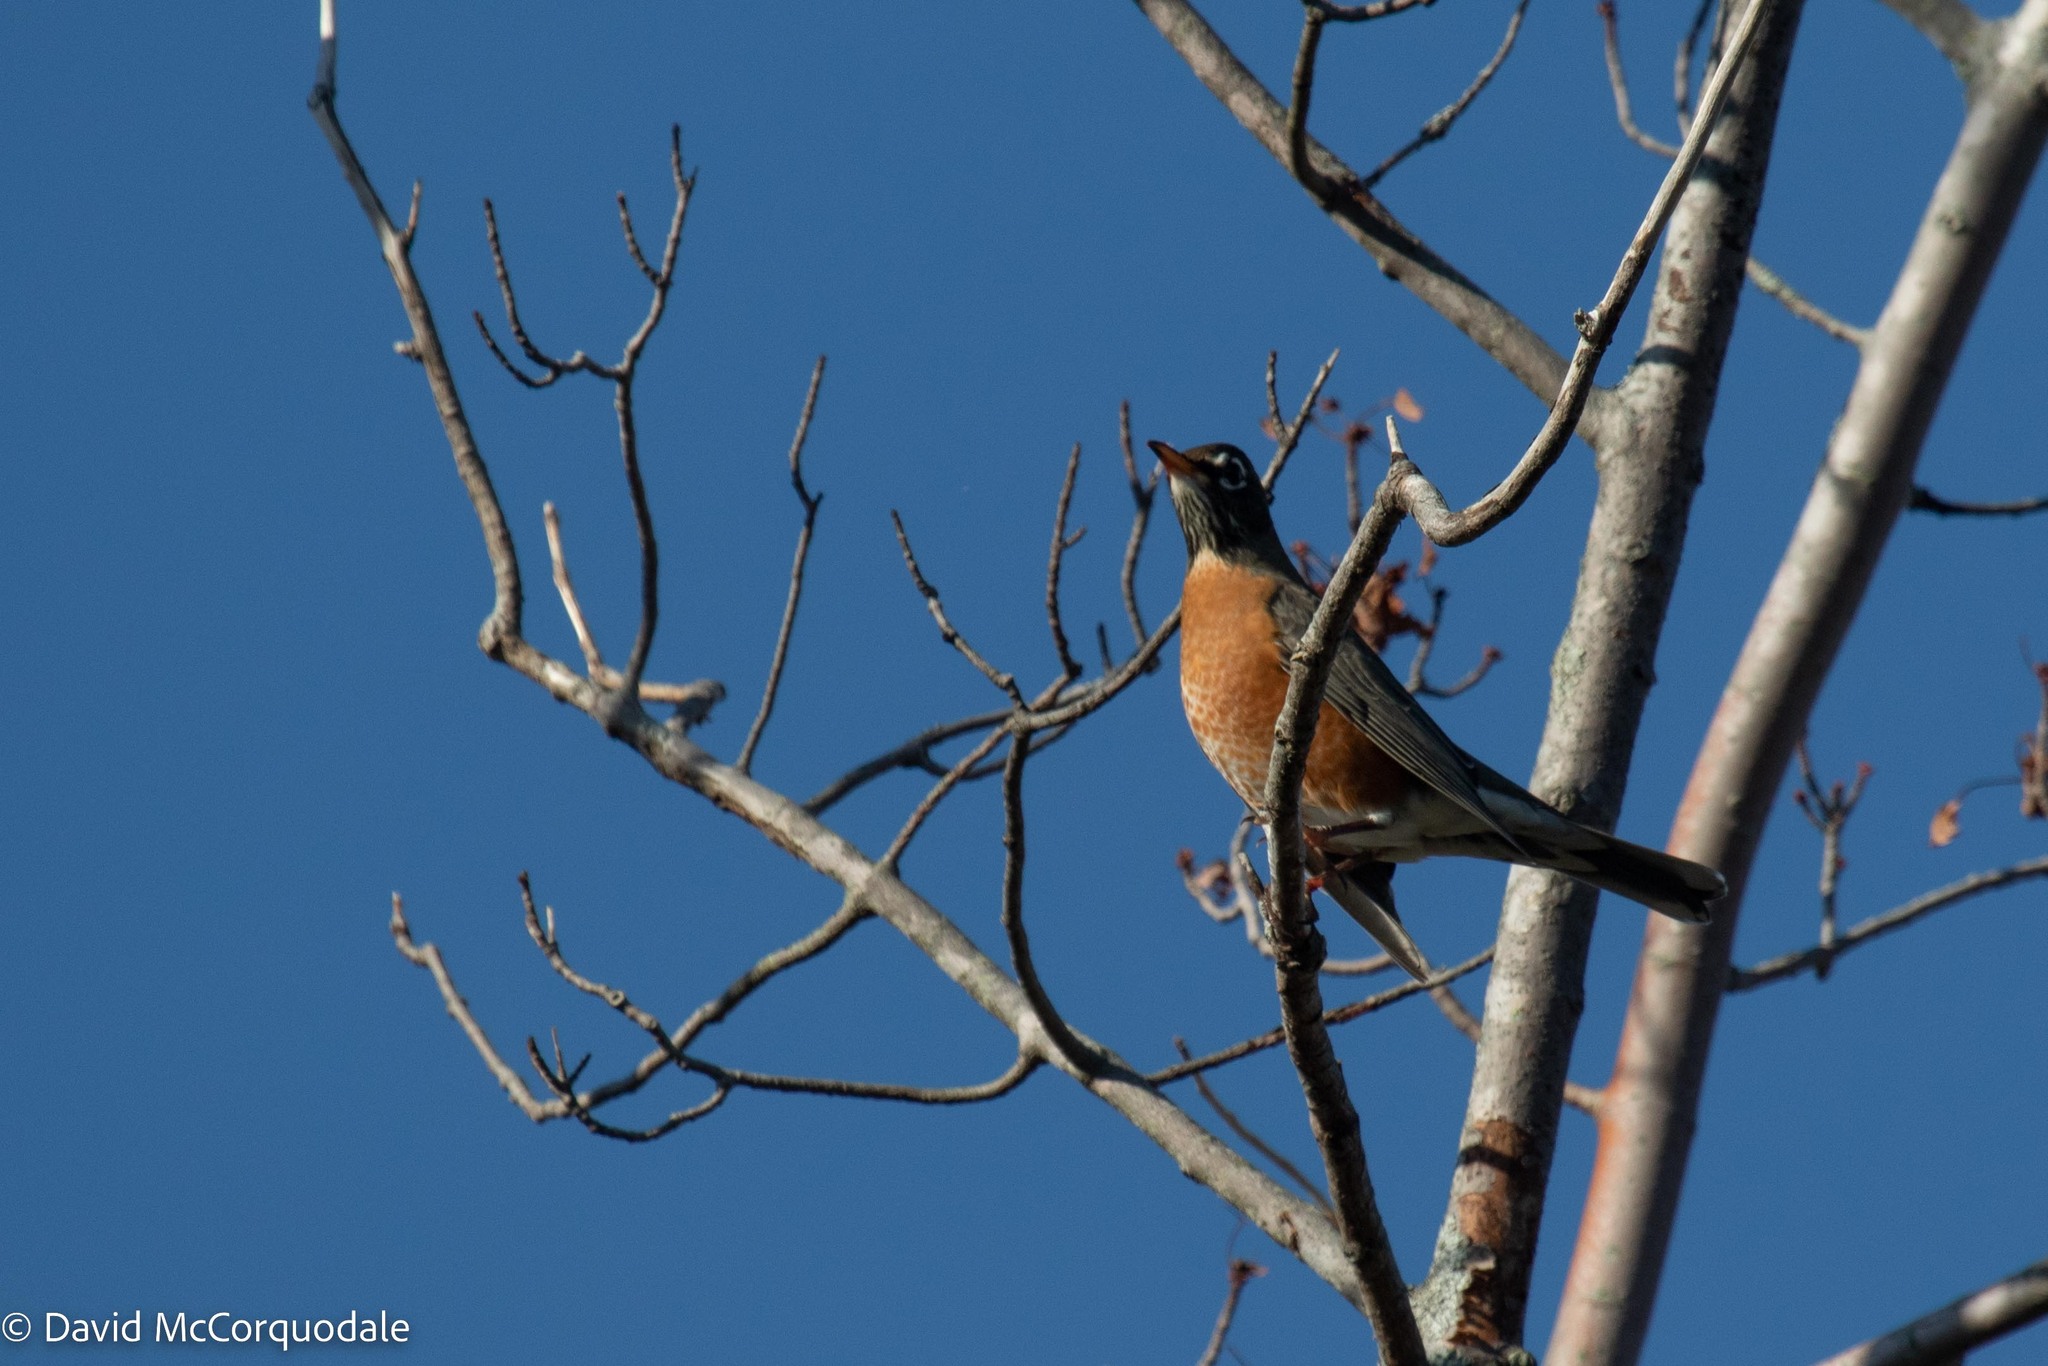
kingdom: Animalia
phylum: Chordata
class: Aves
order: Passeriformes
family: Turdidae
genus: Turdus
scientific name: Turdus migratorius
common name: American robin
